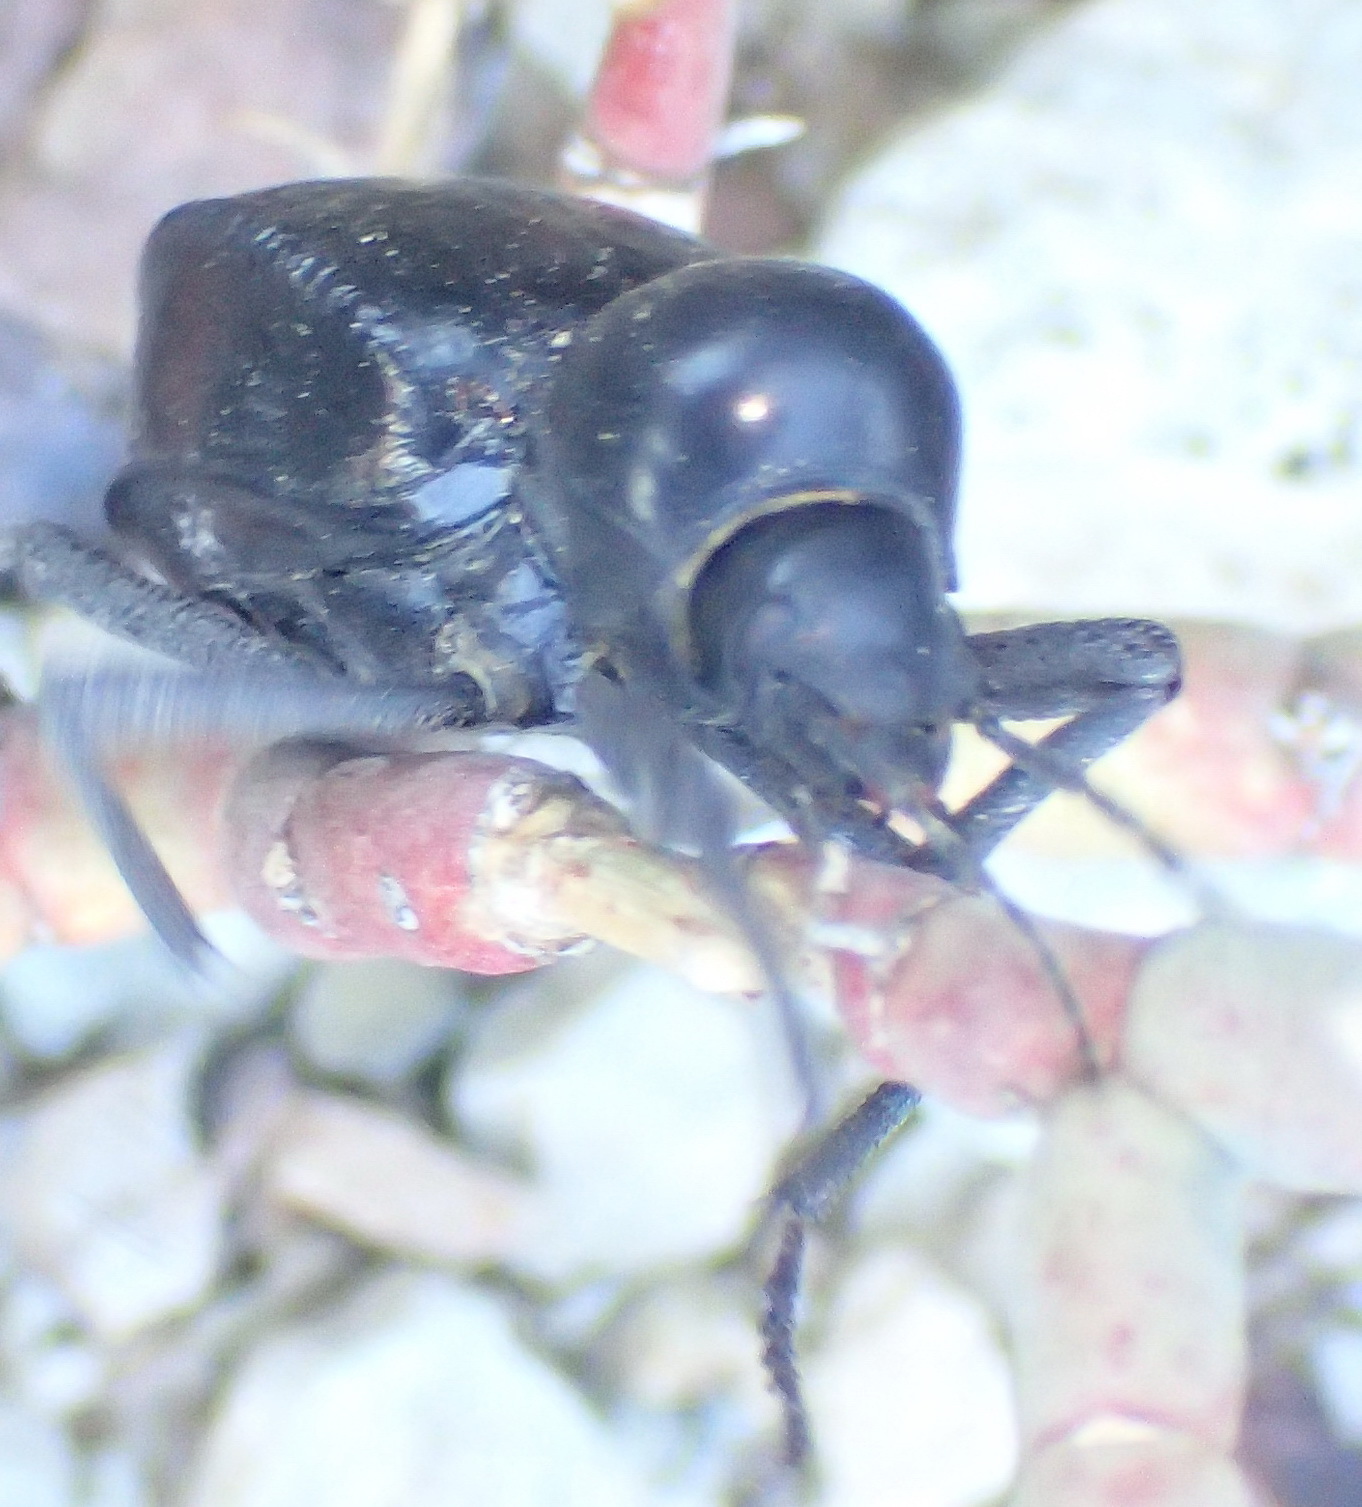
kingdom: Animalia
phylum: Arthropoda
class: Insecta
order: Coleoptera
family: Tenebrionidae
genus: Moluris
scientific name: Moluris gibba
